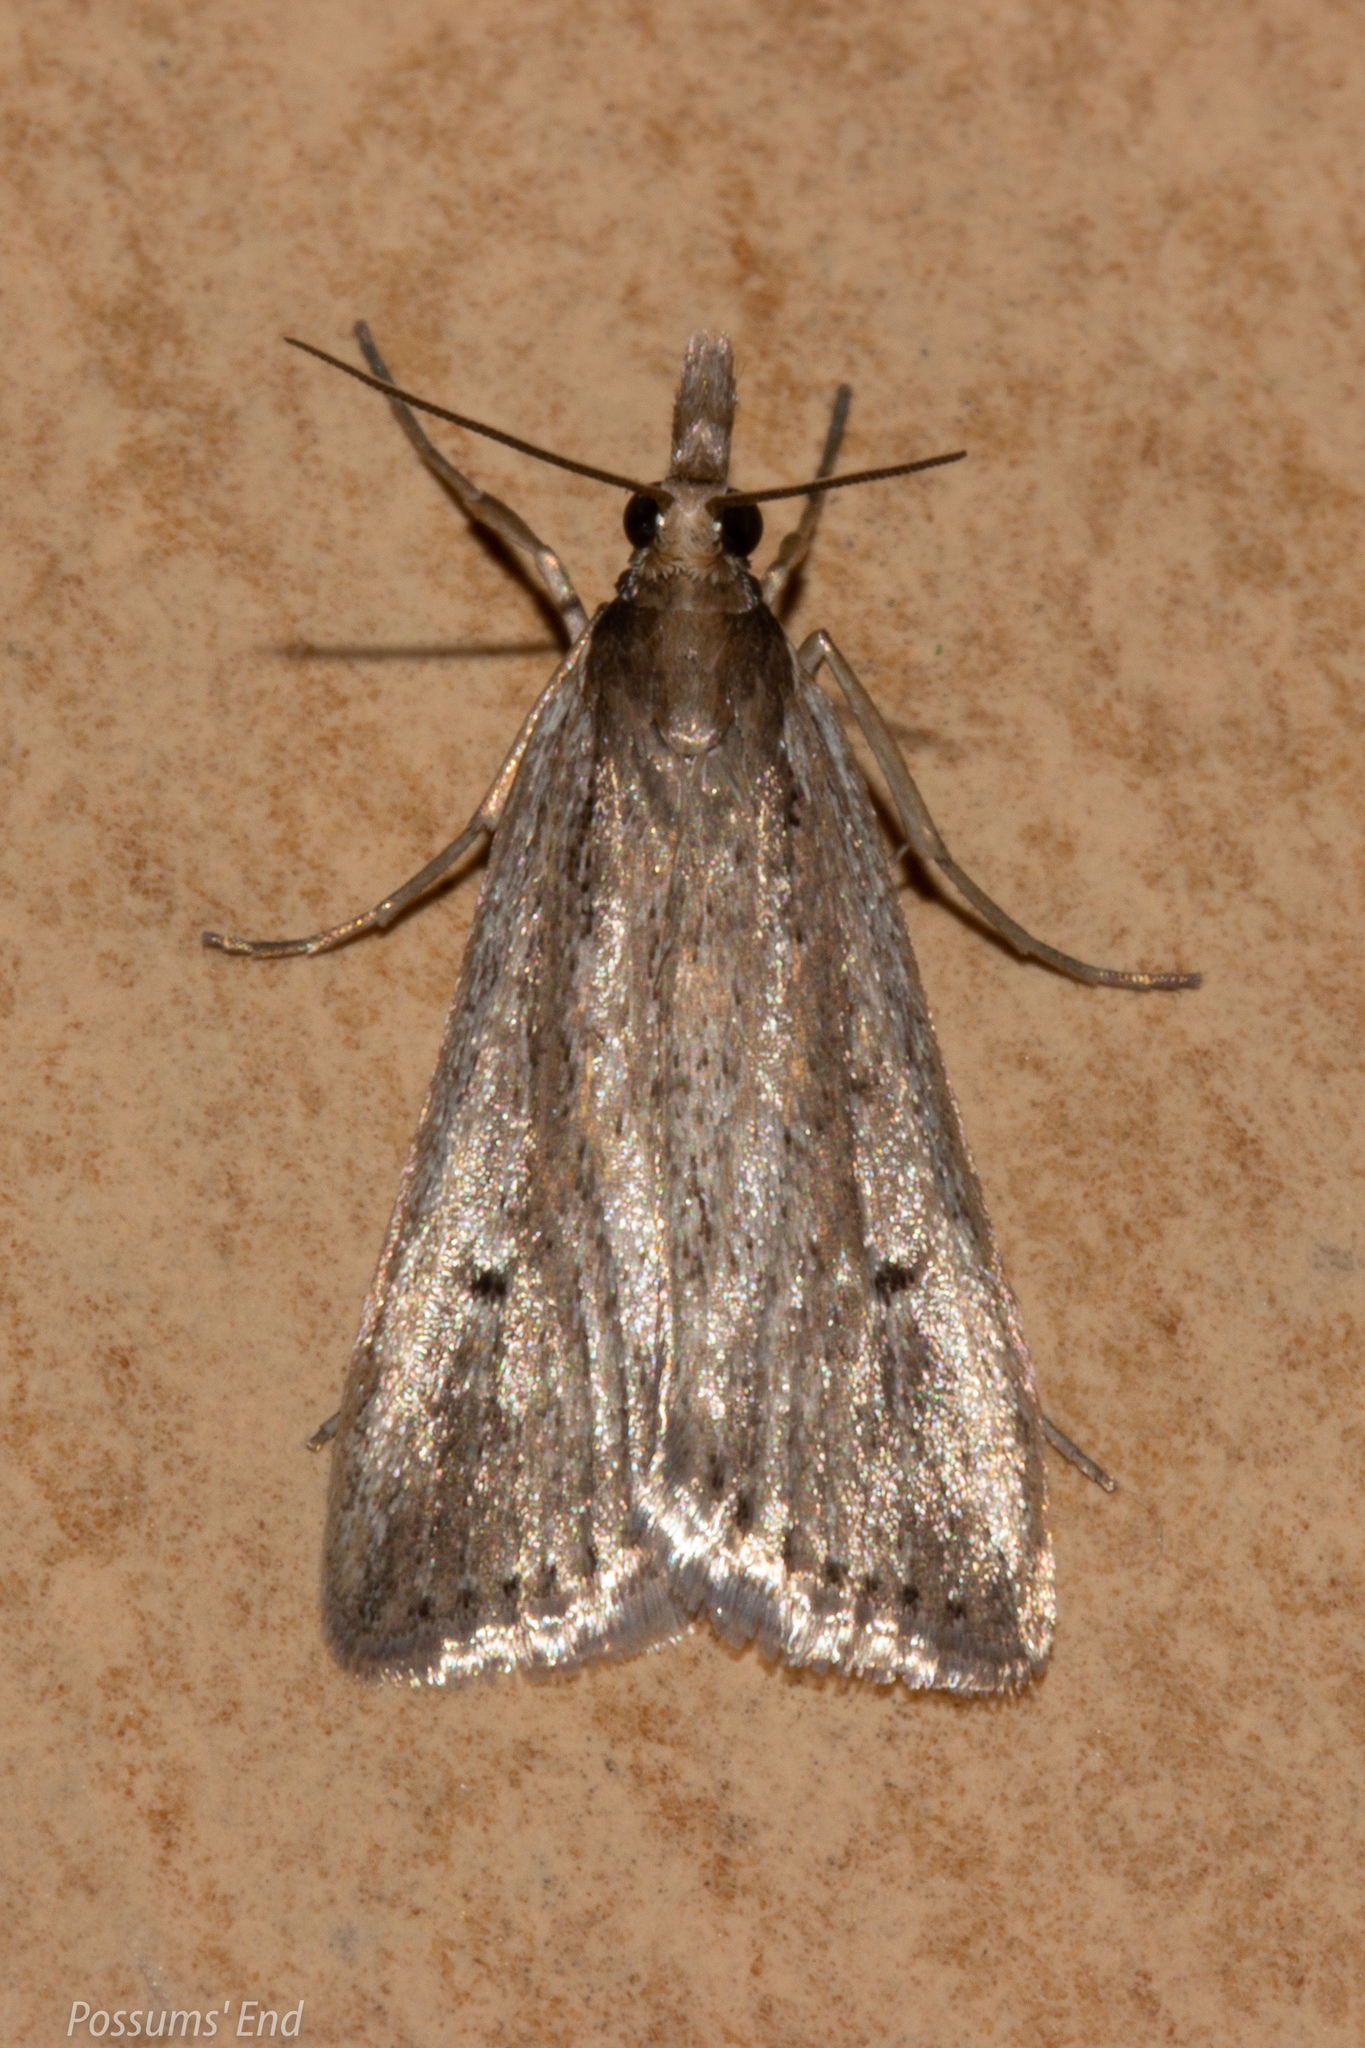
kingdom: Animalia
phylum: Arthropoda
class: Insecta
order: Lepidoptera
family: Crambidae
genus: Eudonia
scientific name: Eudonia sabulosella
